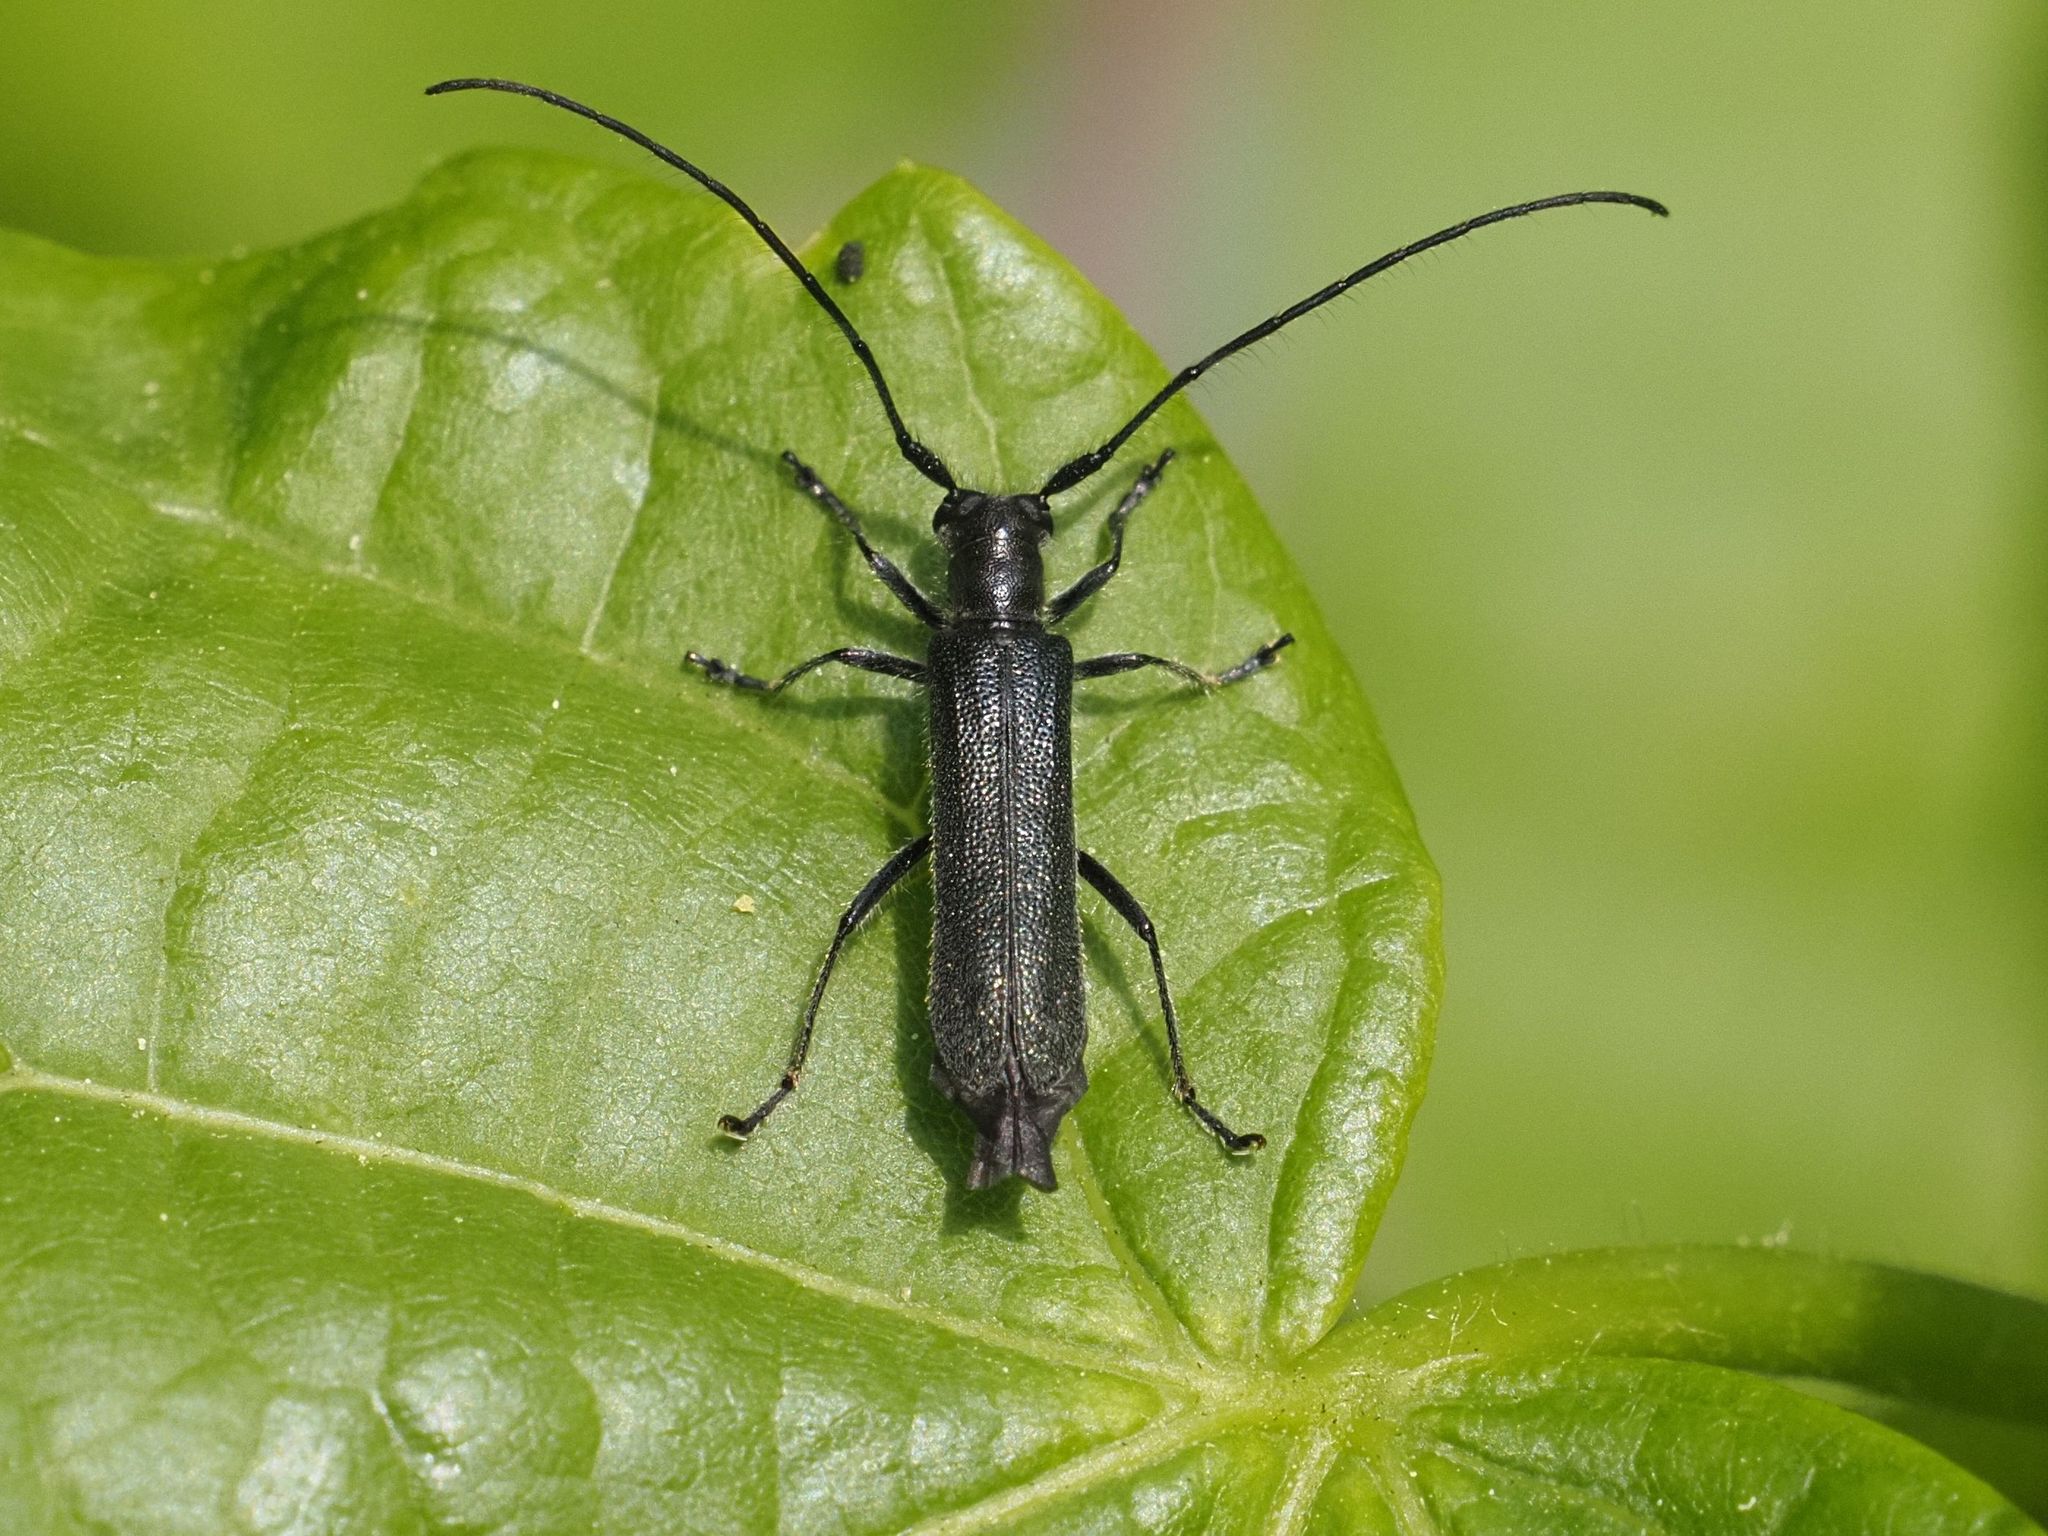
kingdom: Animalia
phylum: Arthropoda
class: Insecta
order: Coleoptera
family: Cerambycidae
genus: Stenostola
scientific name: Stenostola ferrea
